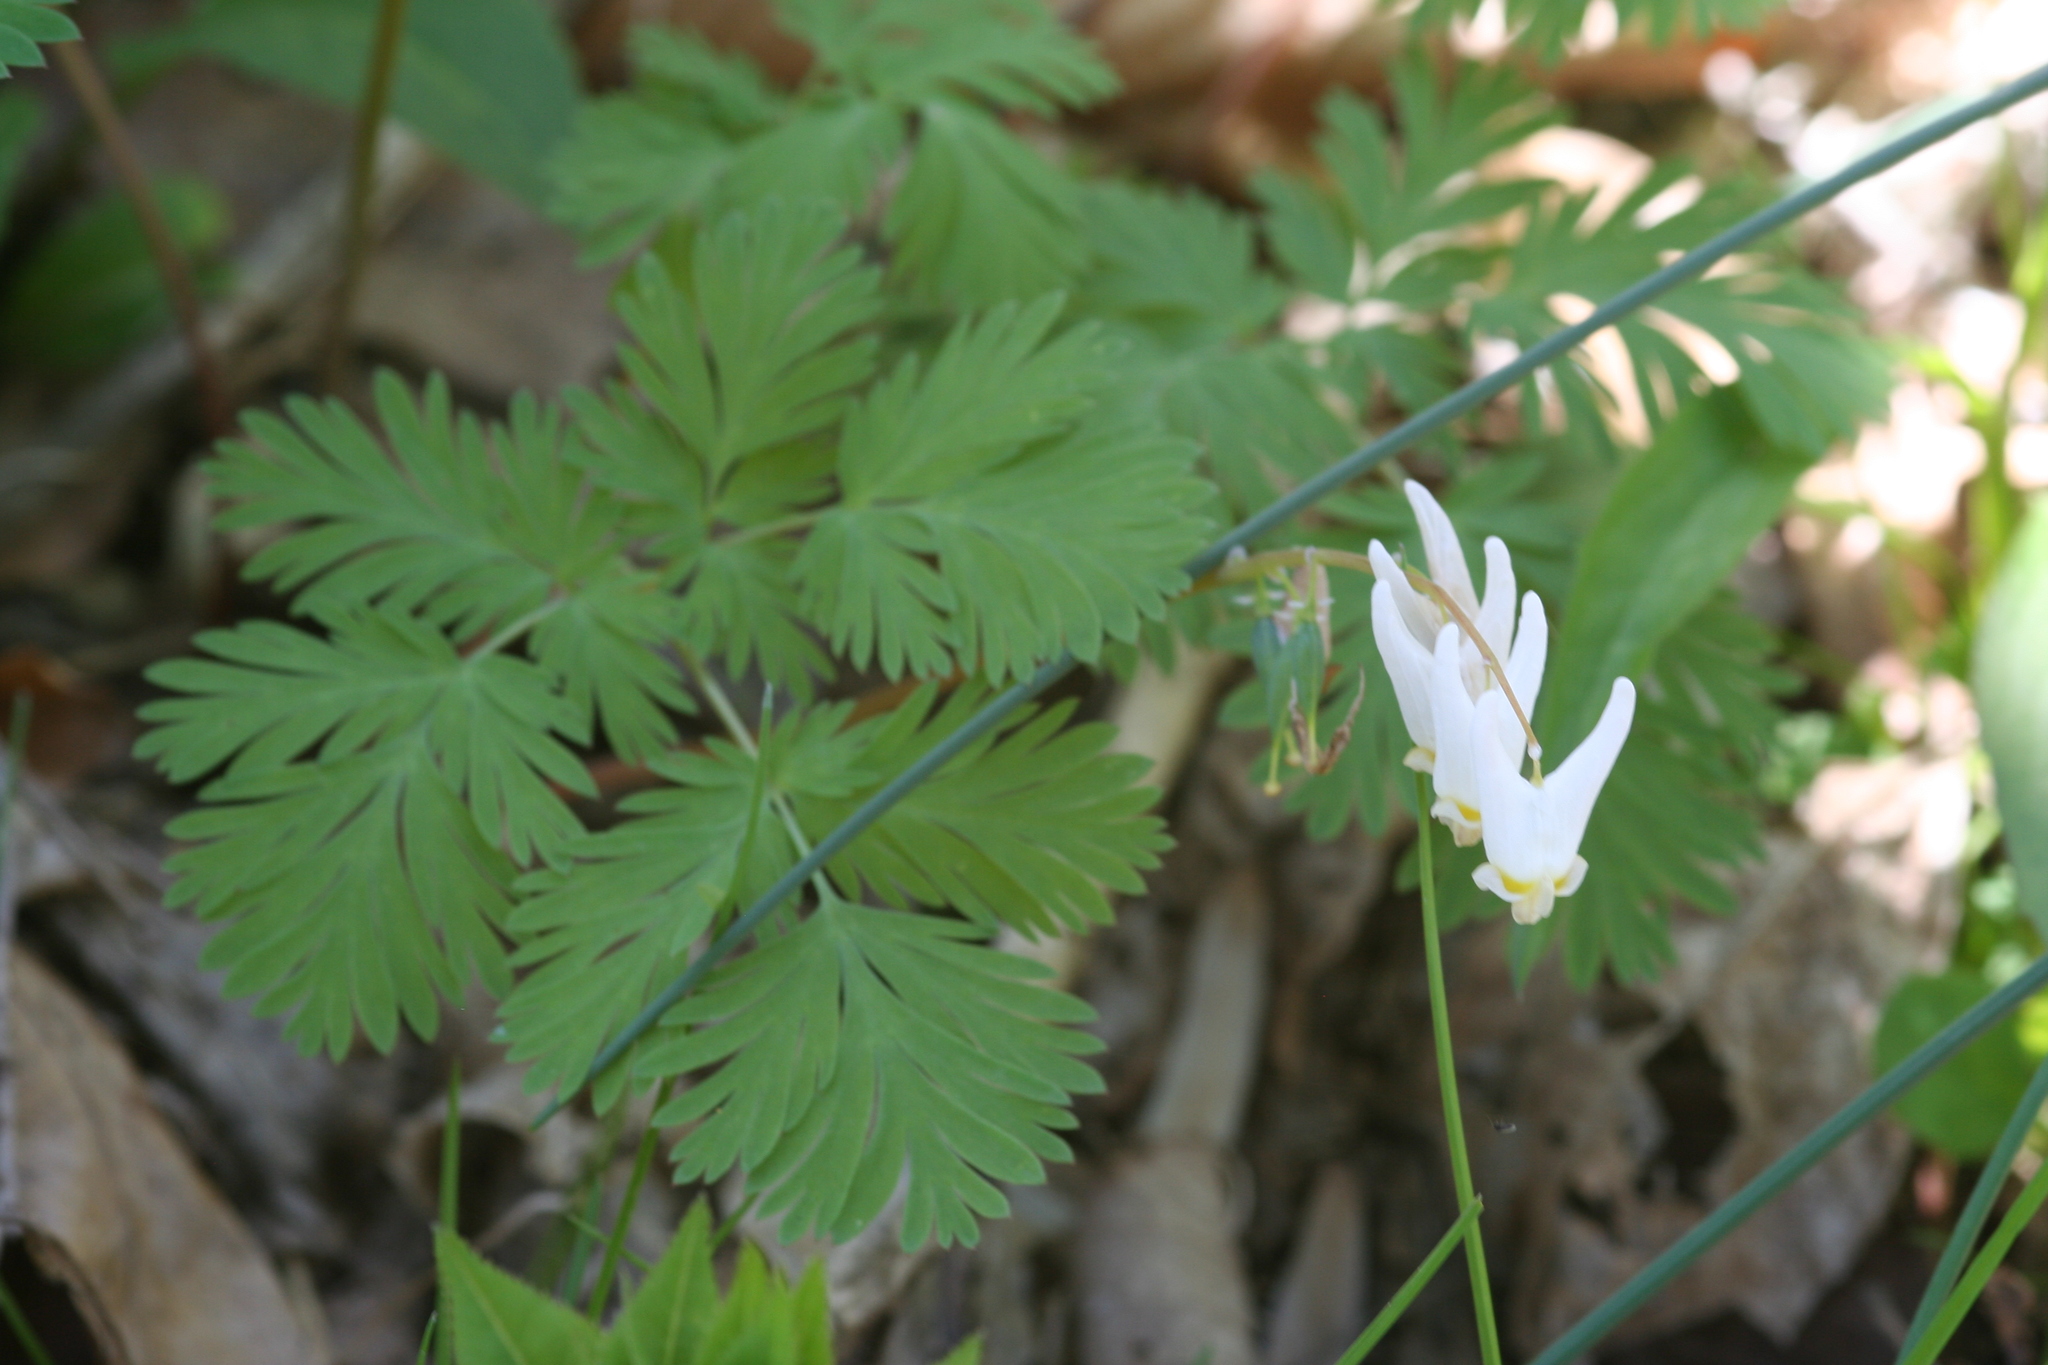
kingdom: Plantae
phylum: Tracheophyta
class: Magnoliopsida
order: Ranunculales
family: Papaveraceae
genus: Dicentra
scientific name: Dicentra cucullaria
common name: Dutchman's breeches
